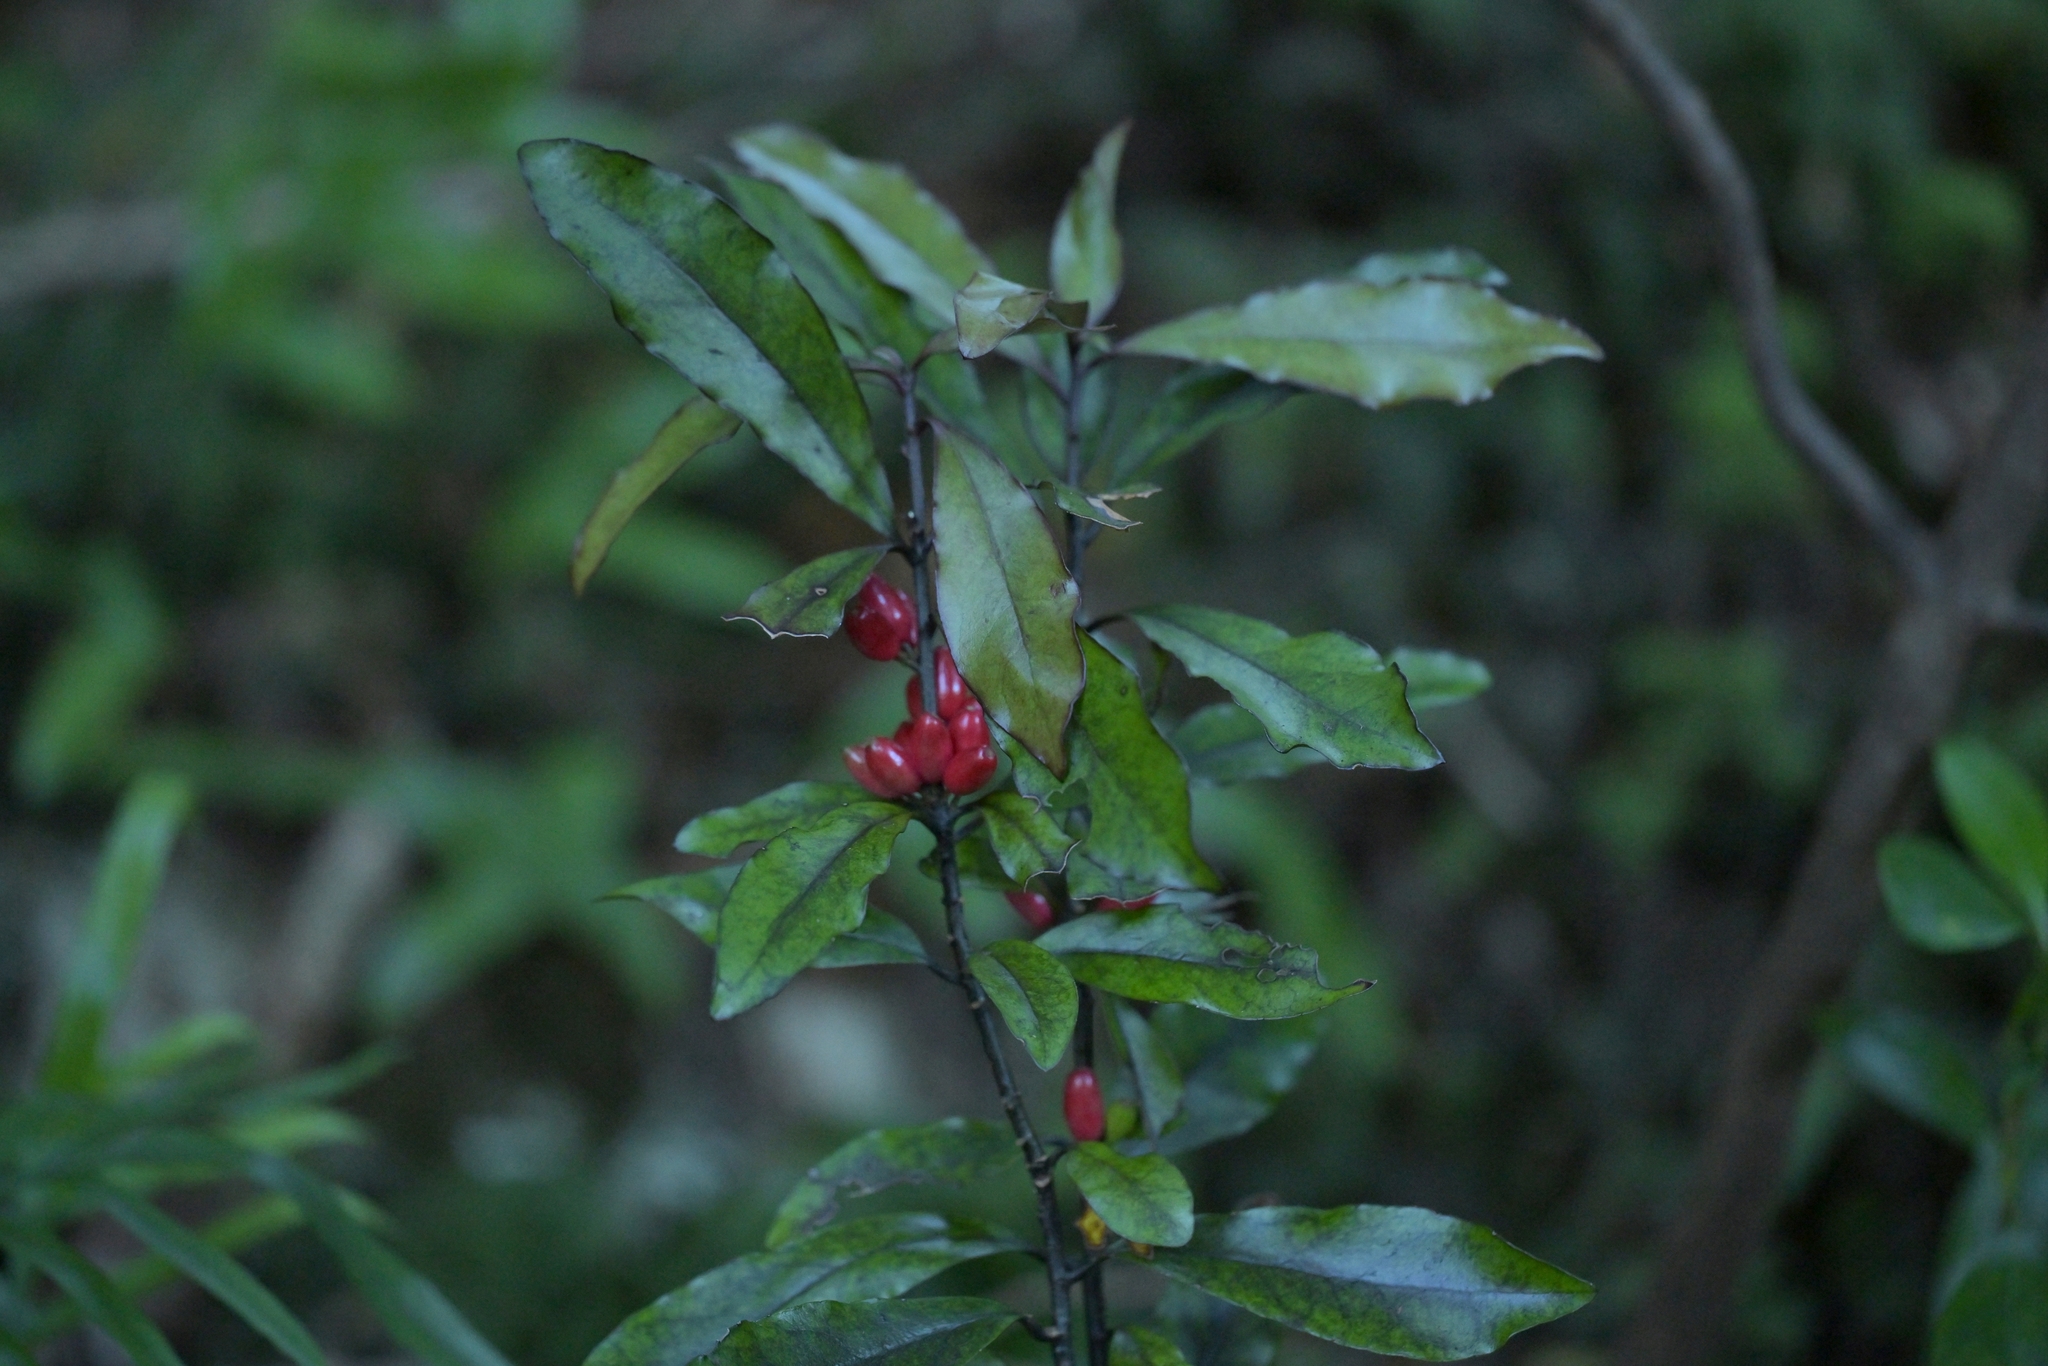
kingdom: Plantae
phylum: Tracheophyta
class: Magnoliopsida
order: Asterales
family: Alseuosmiaceae
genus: Alseuosmia
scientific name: Alseuosmia pusilla
